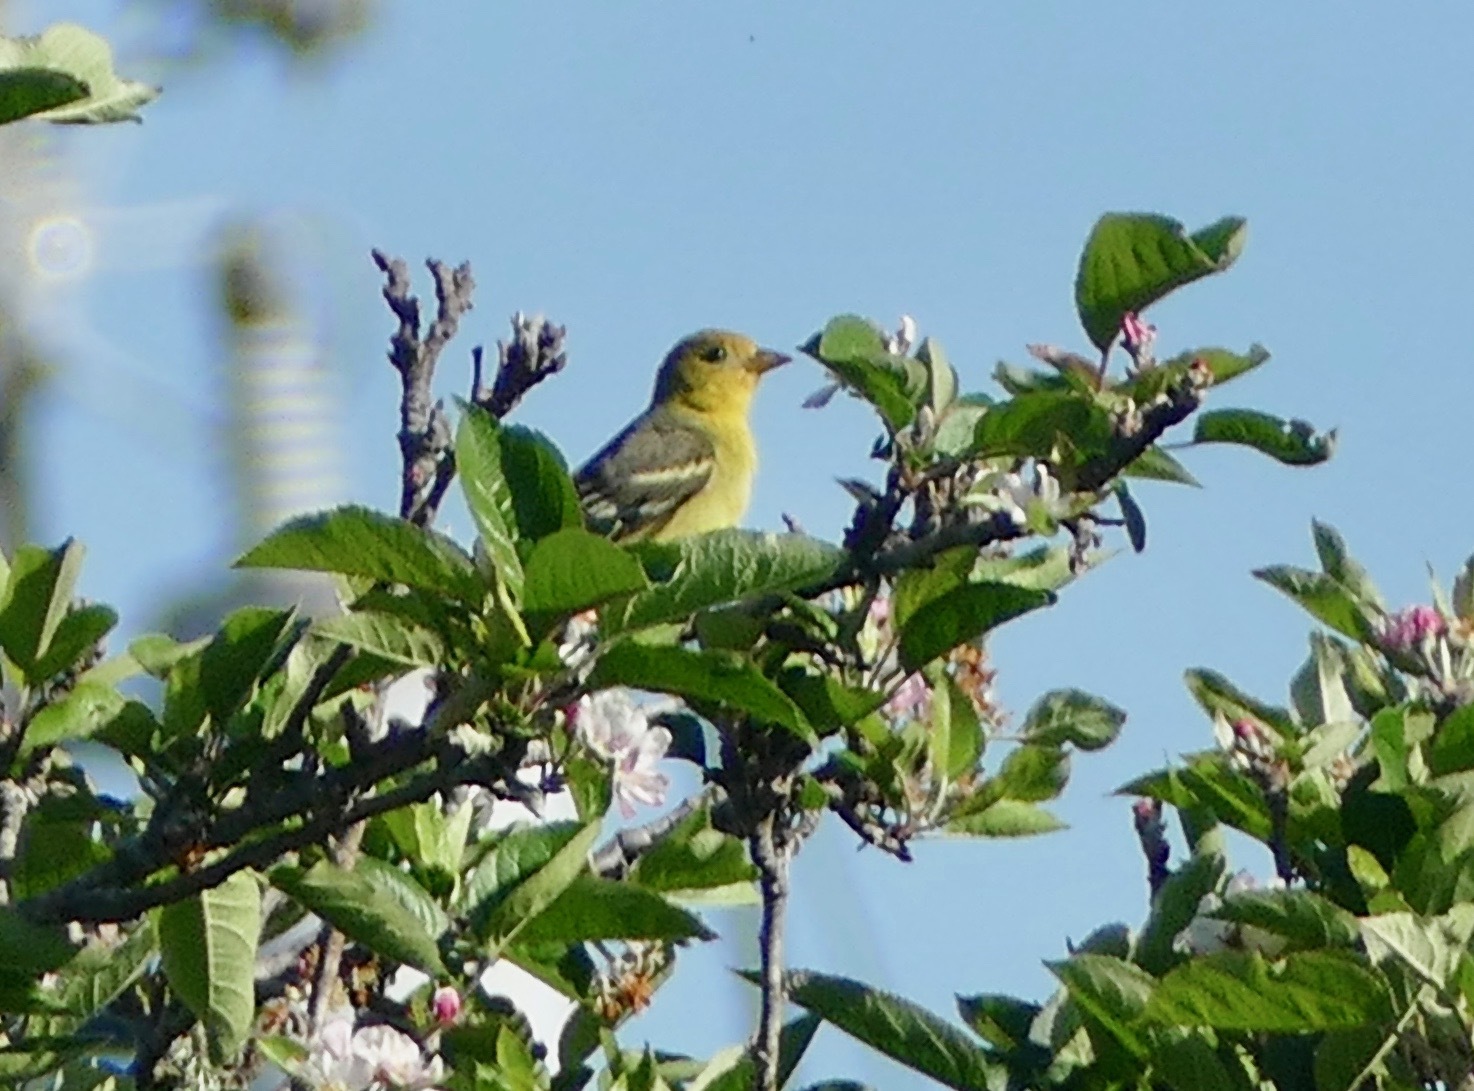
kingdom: Animalia
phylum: Chordata
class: Aves
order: Passeriformes
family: Cardinalidae
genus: Piranga
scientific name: Piranga ludoviciana
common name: Western tanager
